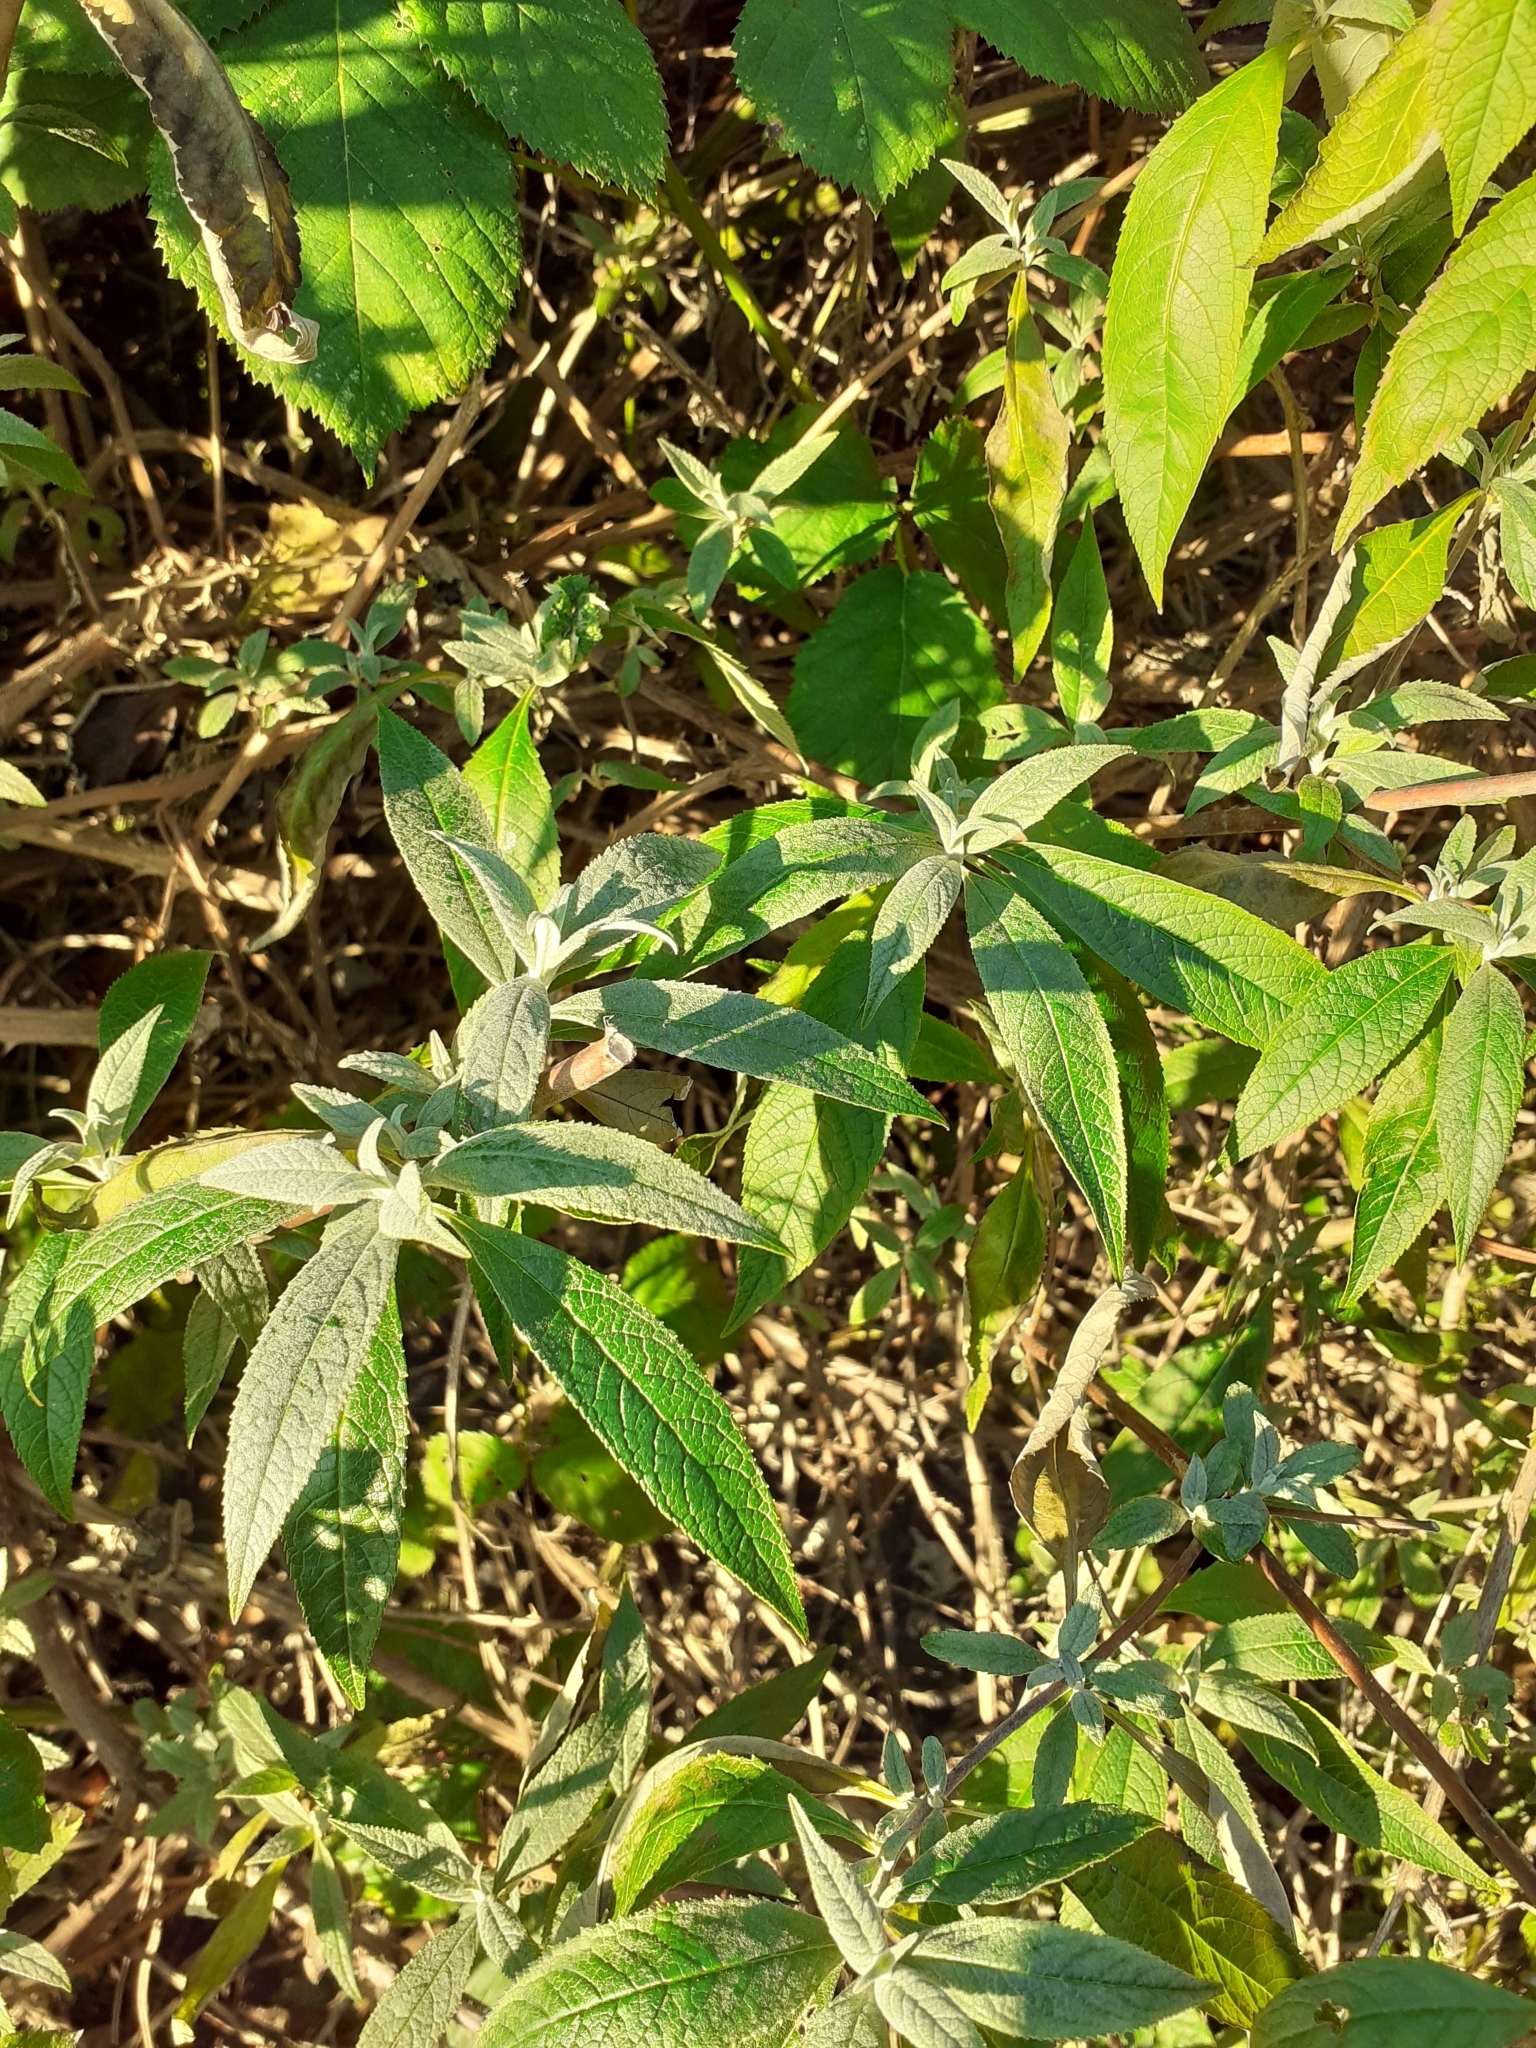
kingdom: Plantae
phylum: Tracheophyta
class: Magnoliopsida
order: Lamiales
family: Scrophulariaceae
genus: Buddleja
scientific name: Buddleja davidii
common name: Butterfly-bush
